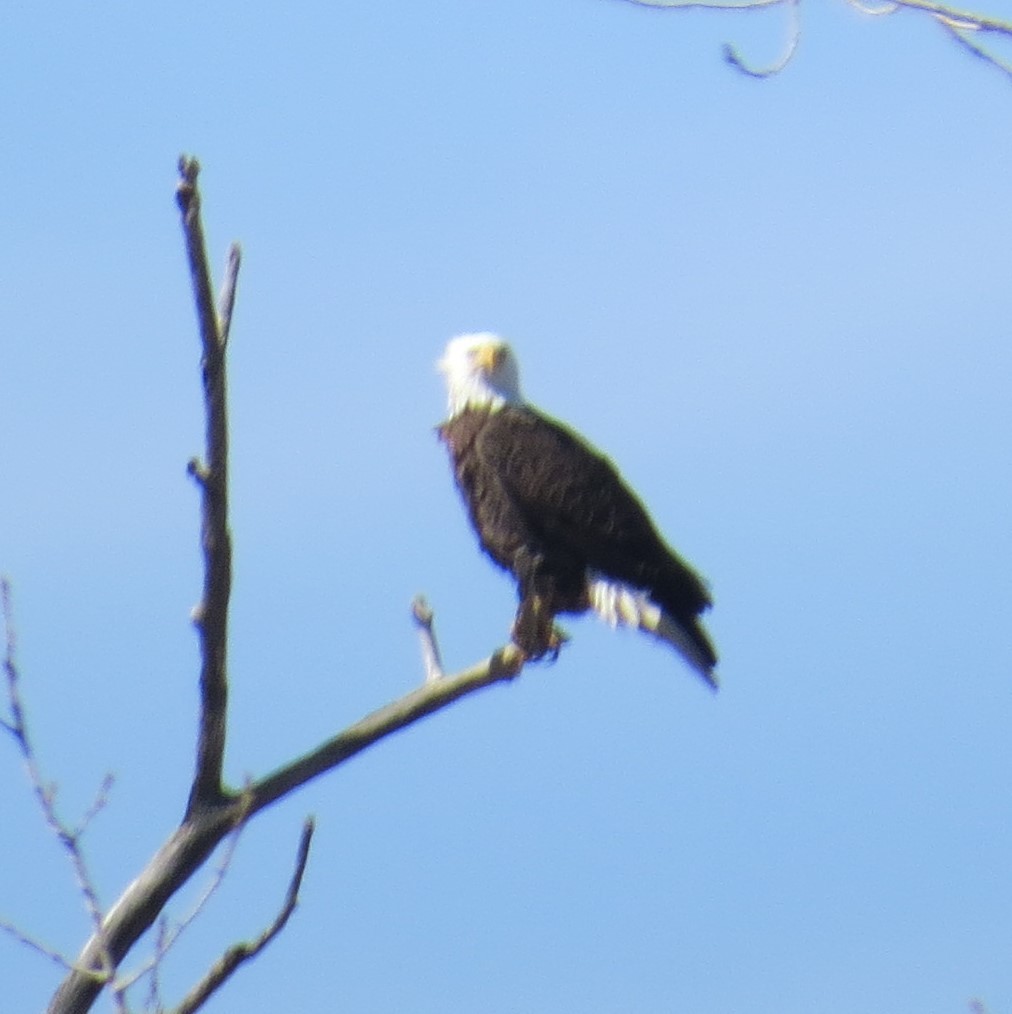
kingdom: Animalia
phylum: Chordata
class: Aves
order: Accipitriformes
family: Accipitridae
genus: Haliaeetus
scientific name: Haliaeetus leucocephalus
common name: Bald eagle
